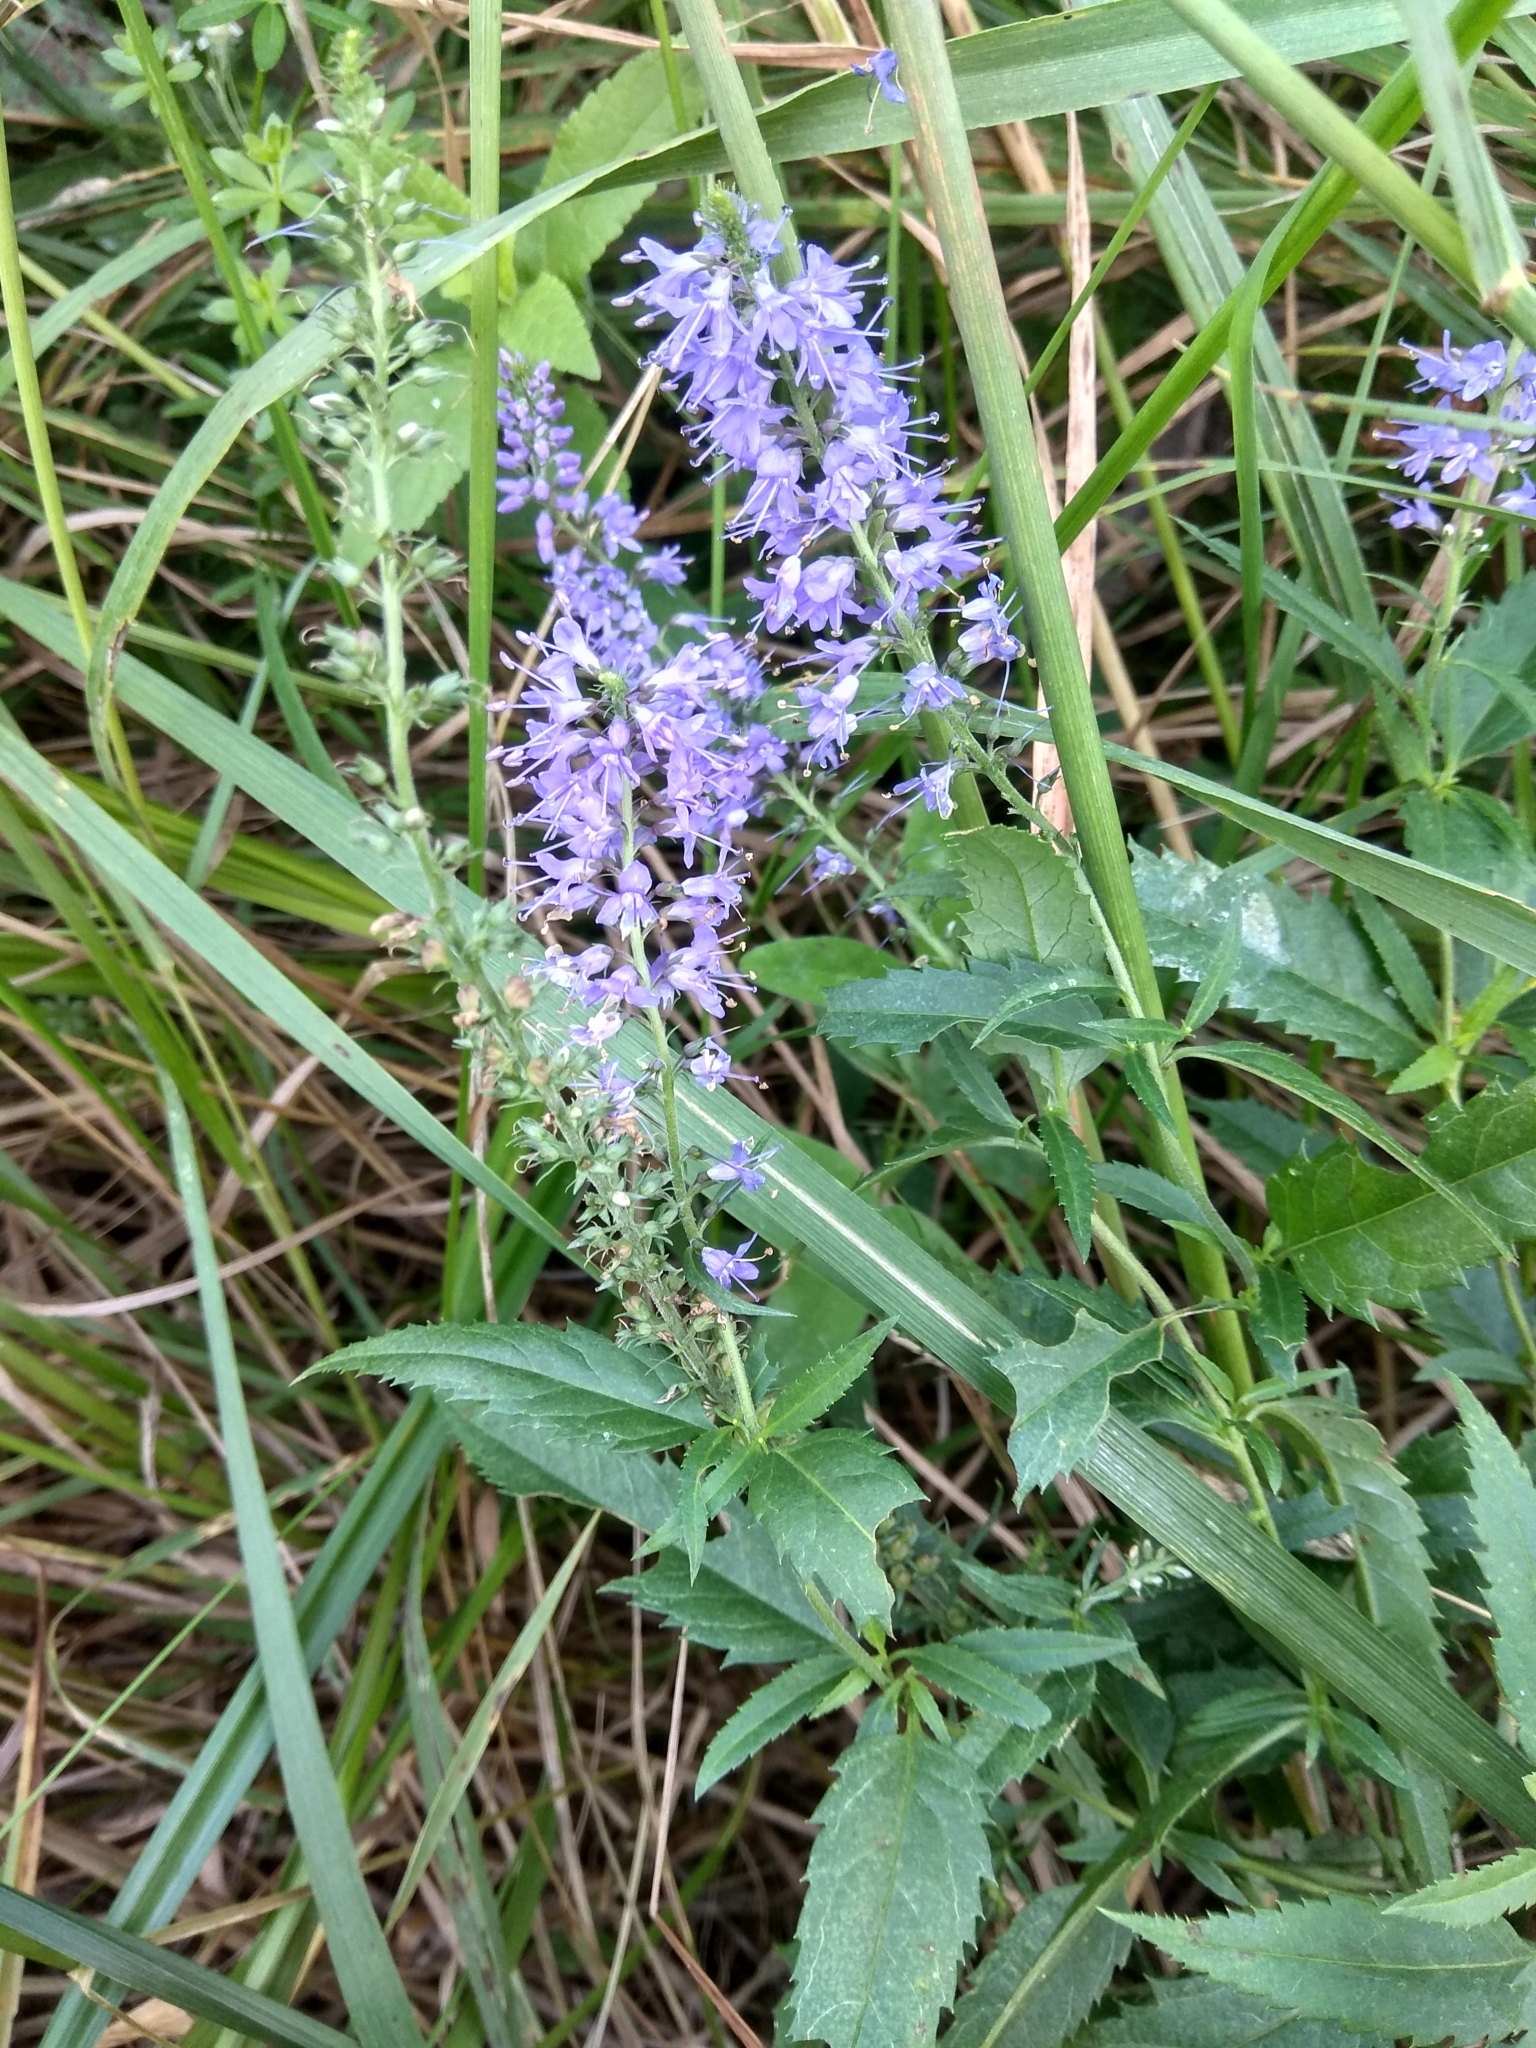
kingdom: Plantae
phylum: Tracheophyta
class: Magnoliopsida
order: Lamiales
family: Plantaginaceae
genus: Veronica
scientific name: Veronica longifolia
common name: Garden speedwell
